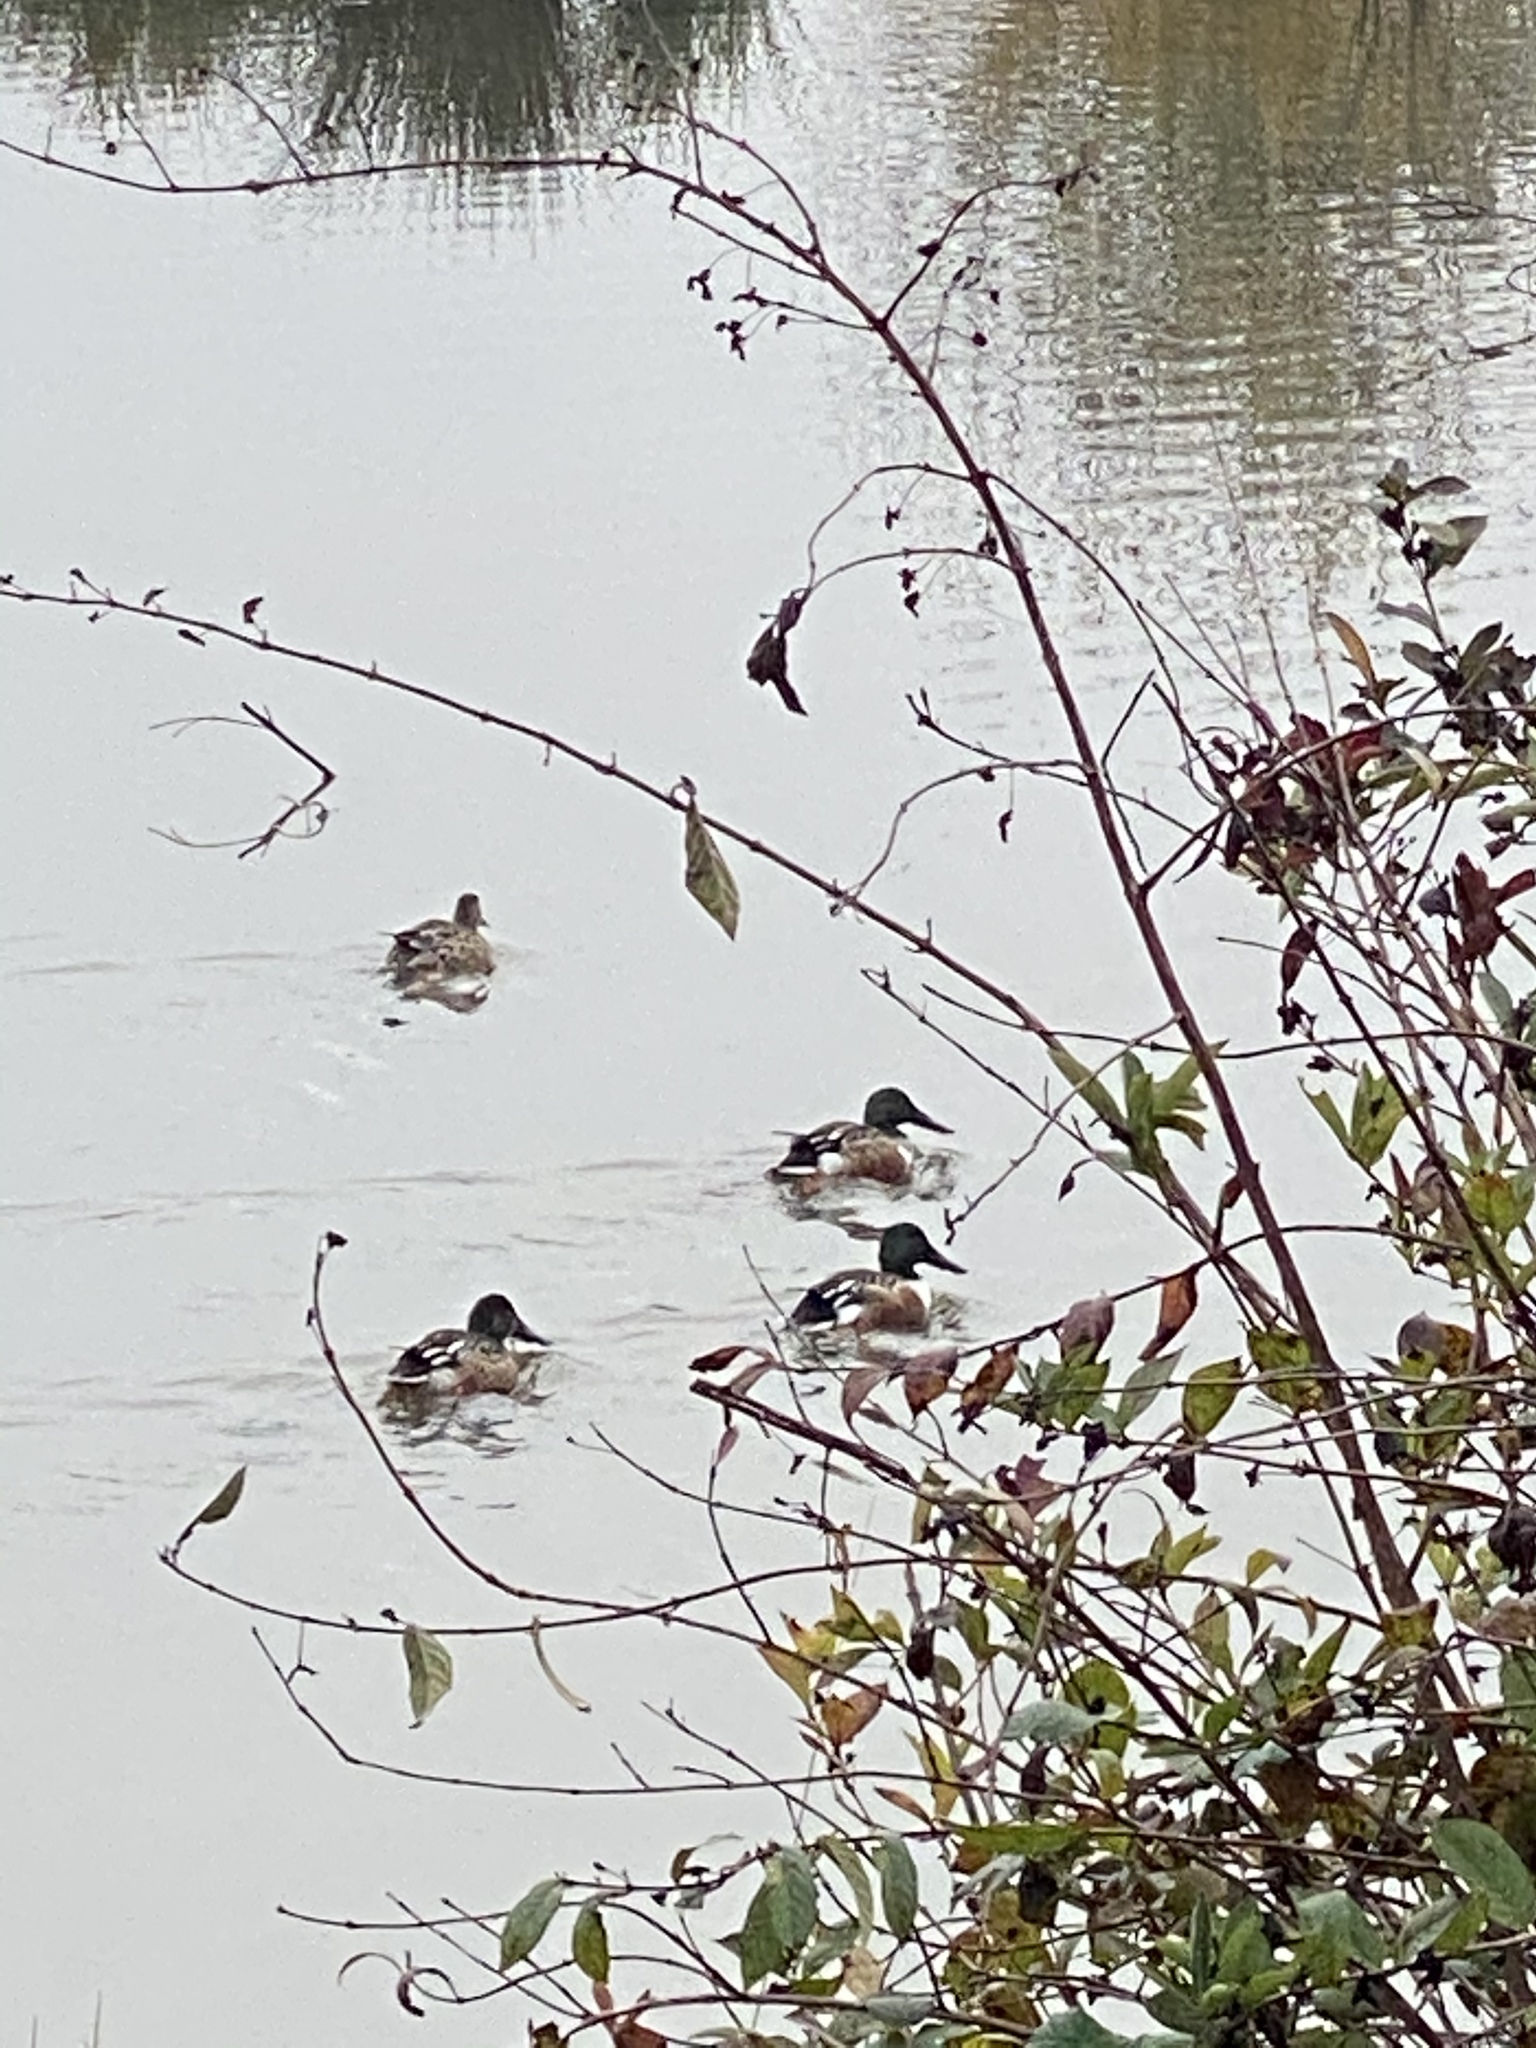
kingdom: Animalia
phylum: Chordata
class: Aves
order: Anseriformes
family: Anatidae
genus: Spatula
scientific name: Spatula clypeata
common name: Northern shoveler
